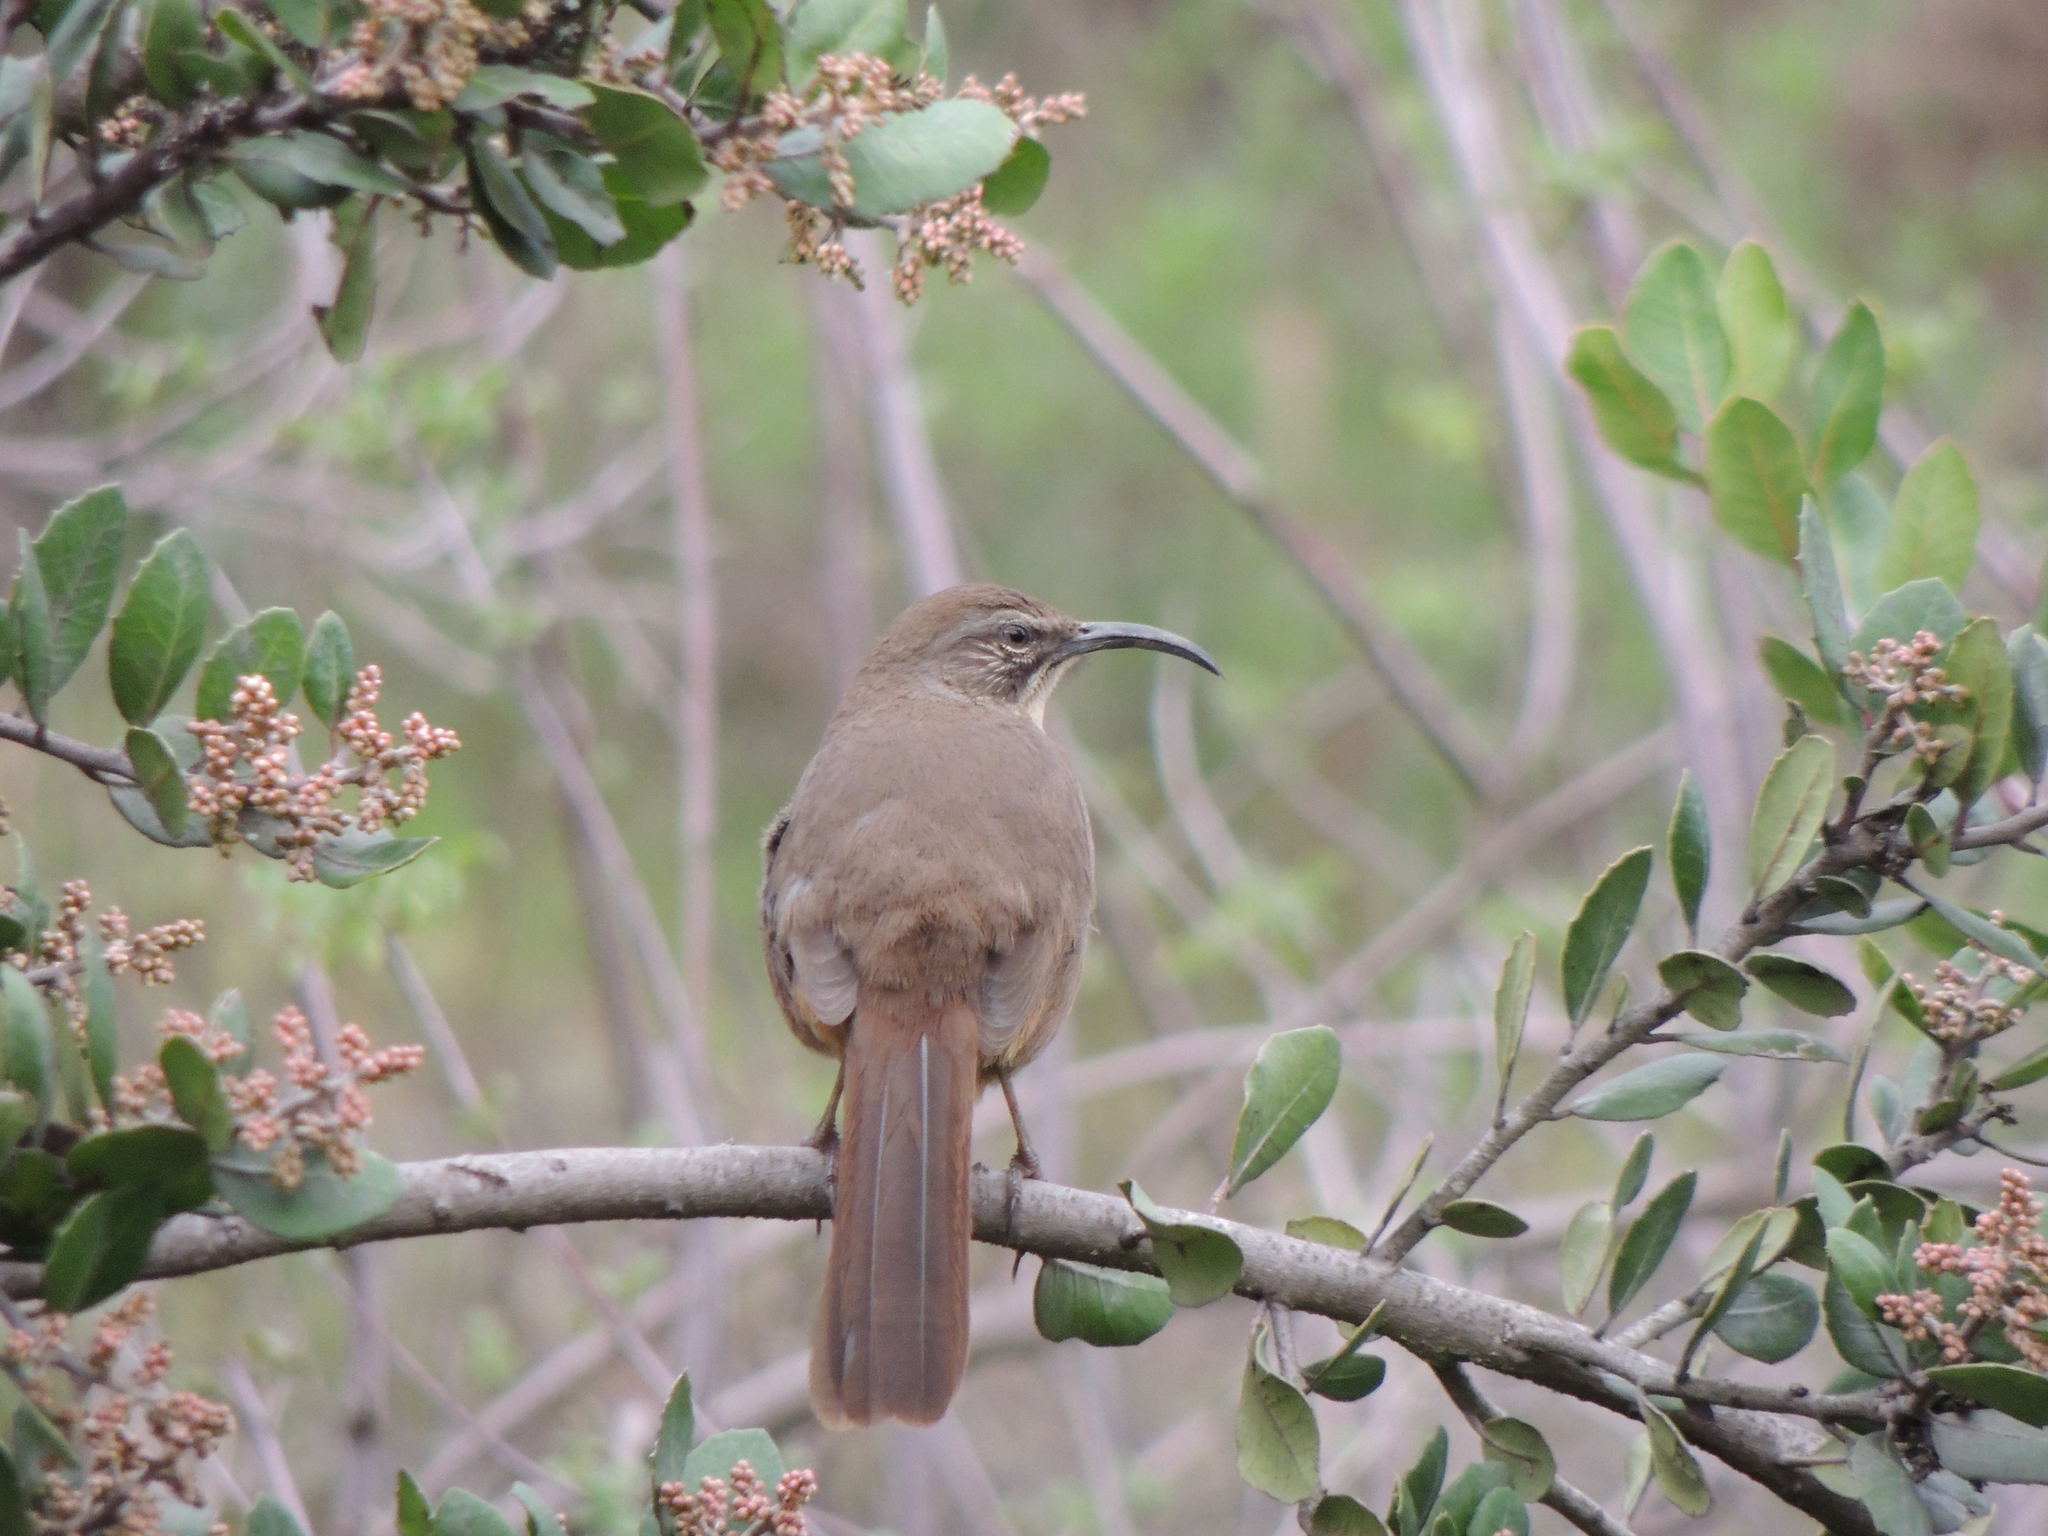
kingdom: Animalia
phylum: Chordata
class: Aves
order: Passeriformes
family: Mimidae
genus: Toxostoma
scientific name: Toxostoma redivivum
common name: California thrasher
